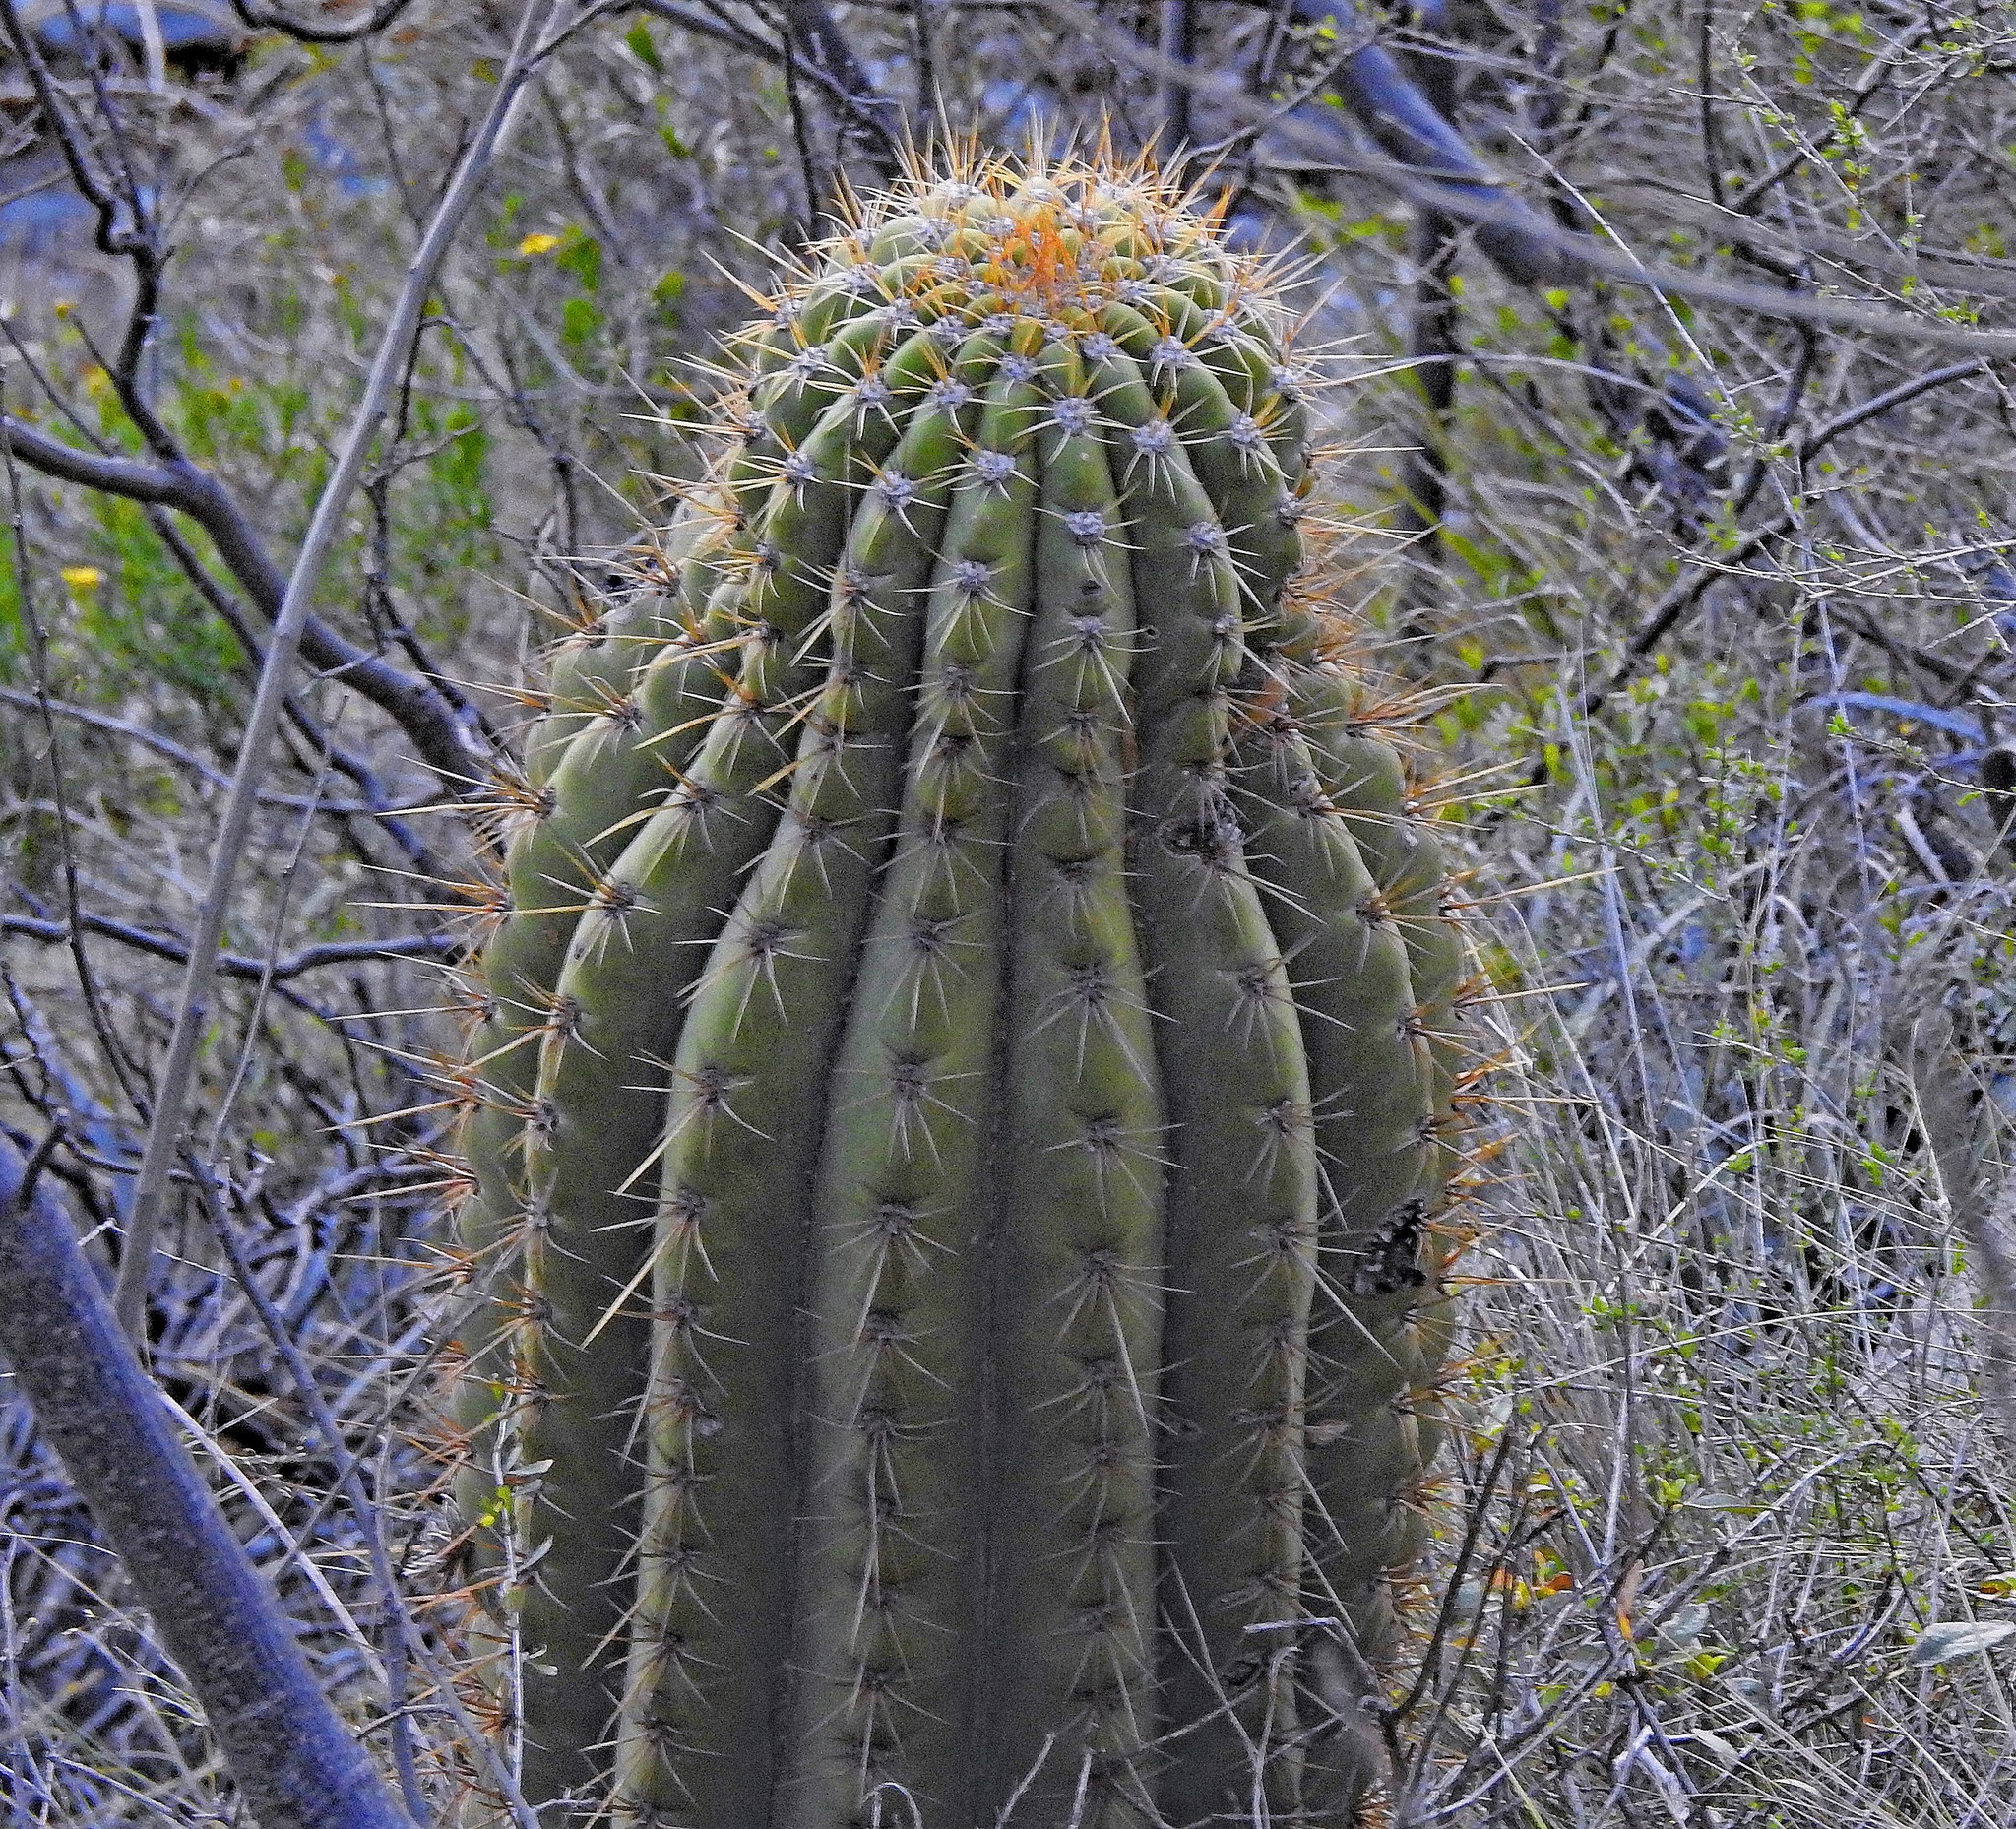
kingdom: Plantae
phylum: Tracheophyta
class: Magnoliopsida
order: Caryophyllales
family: Cactaceae
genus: Leucostele
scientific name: Leucostele terscheckii
